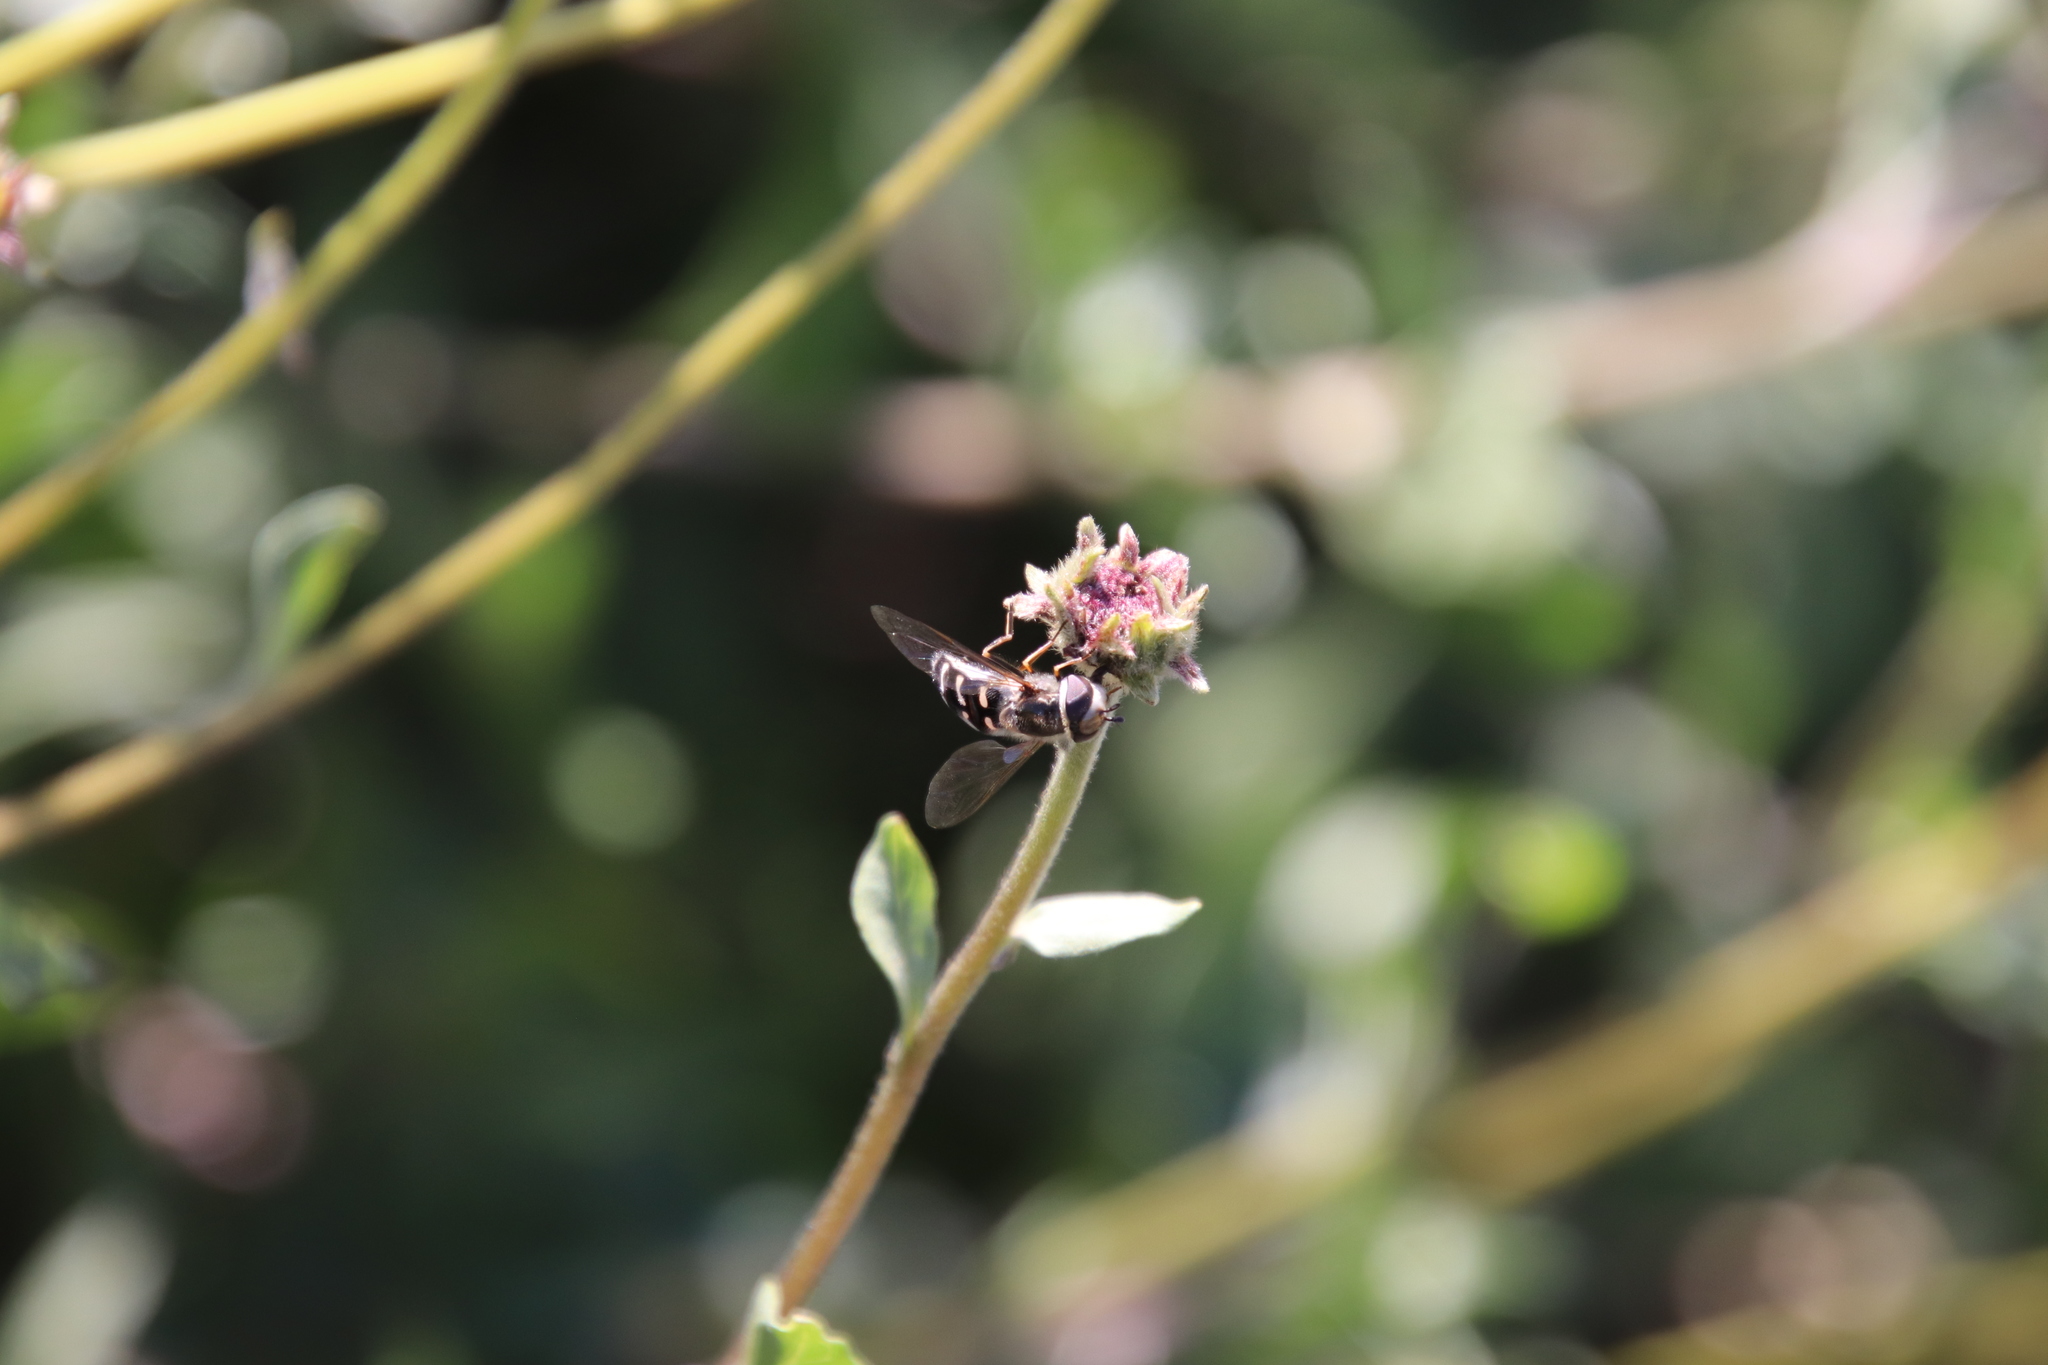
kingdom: Animalia
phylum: Arthropoda
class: Insecta
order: Diptera
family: Syrphidae
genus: Scaeva
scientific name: Scaeva affinis
